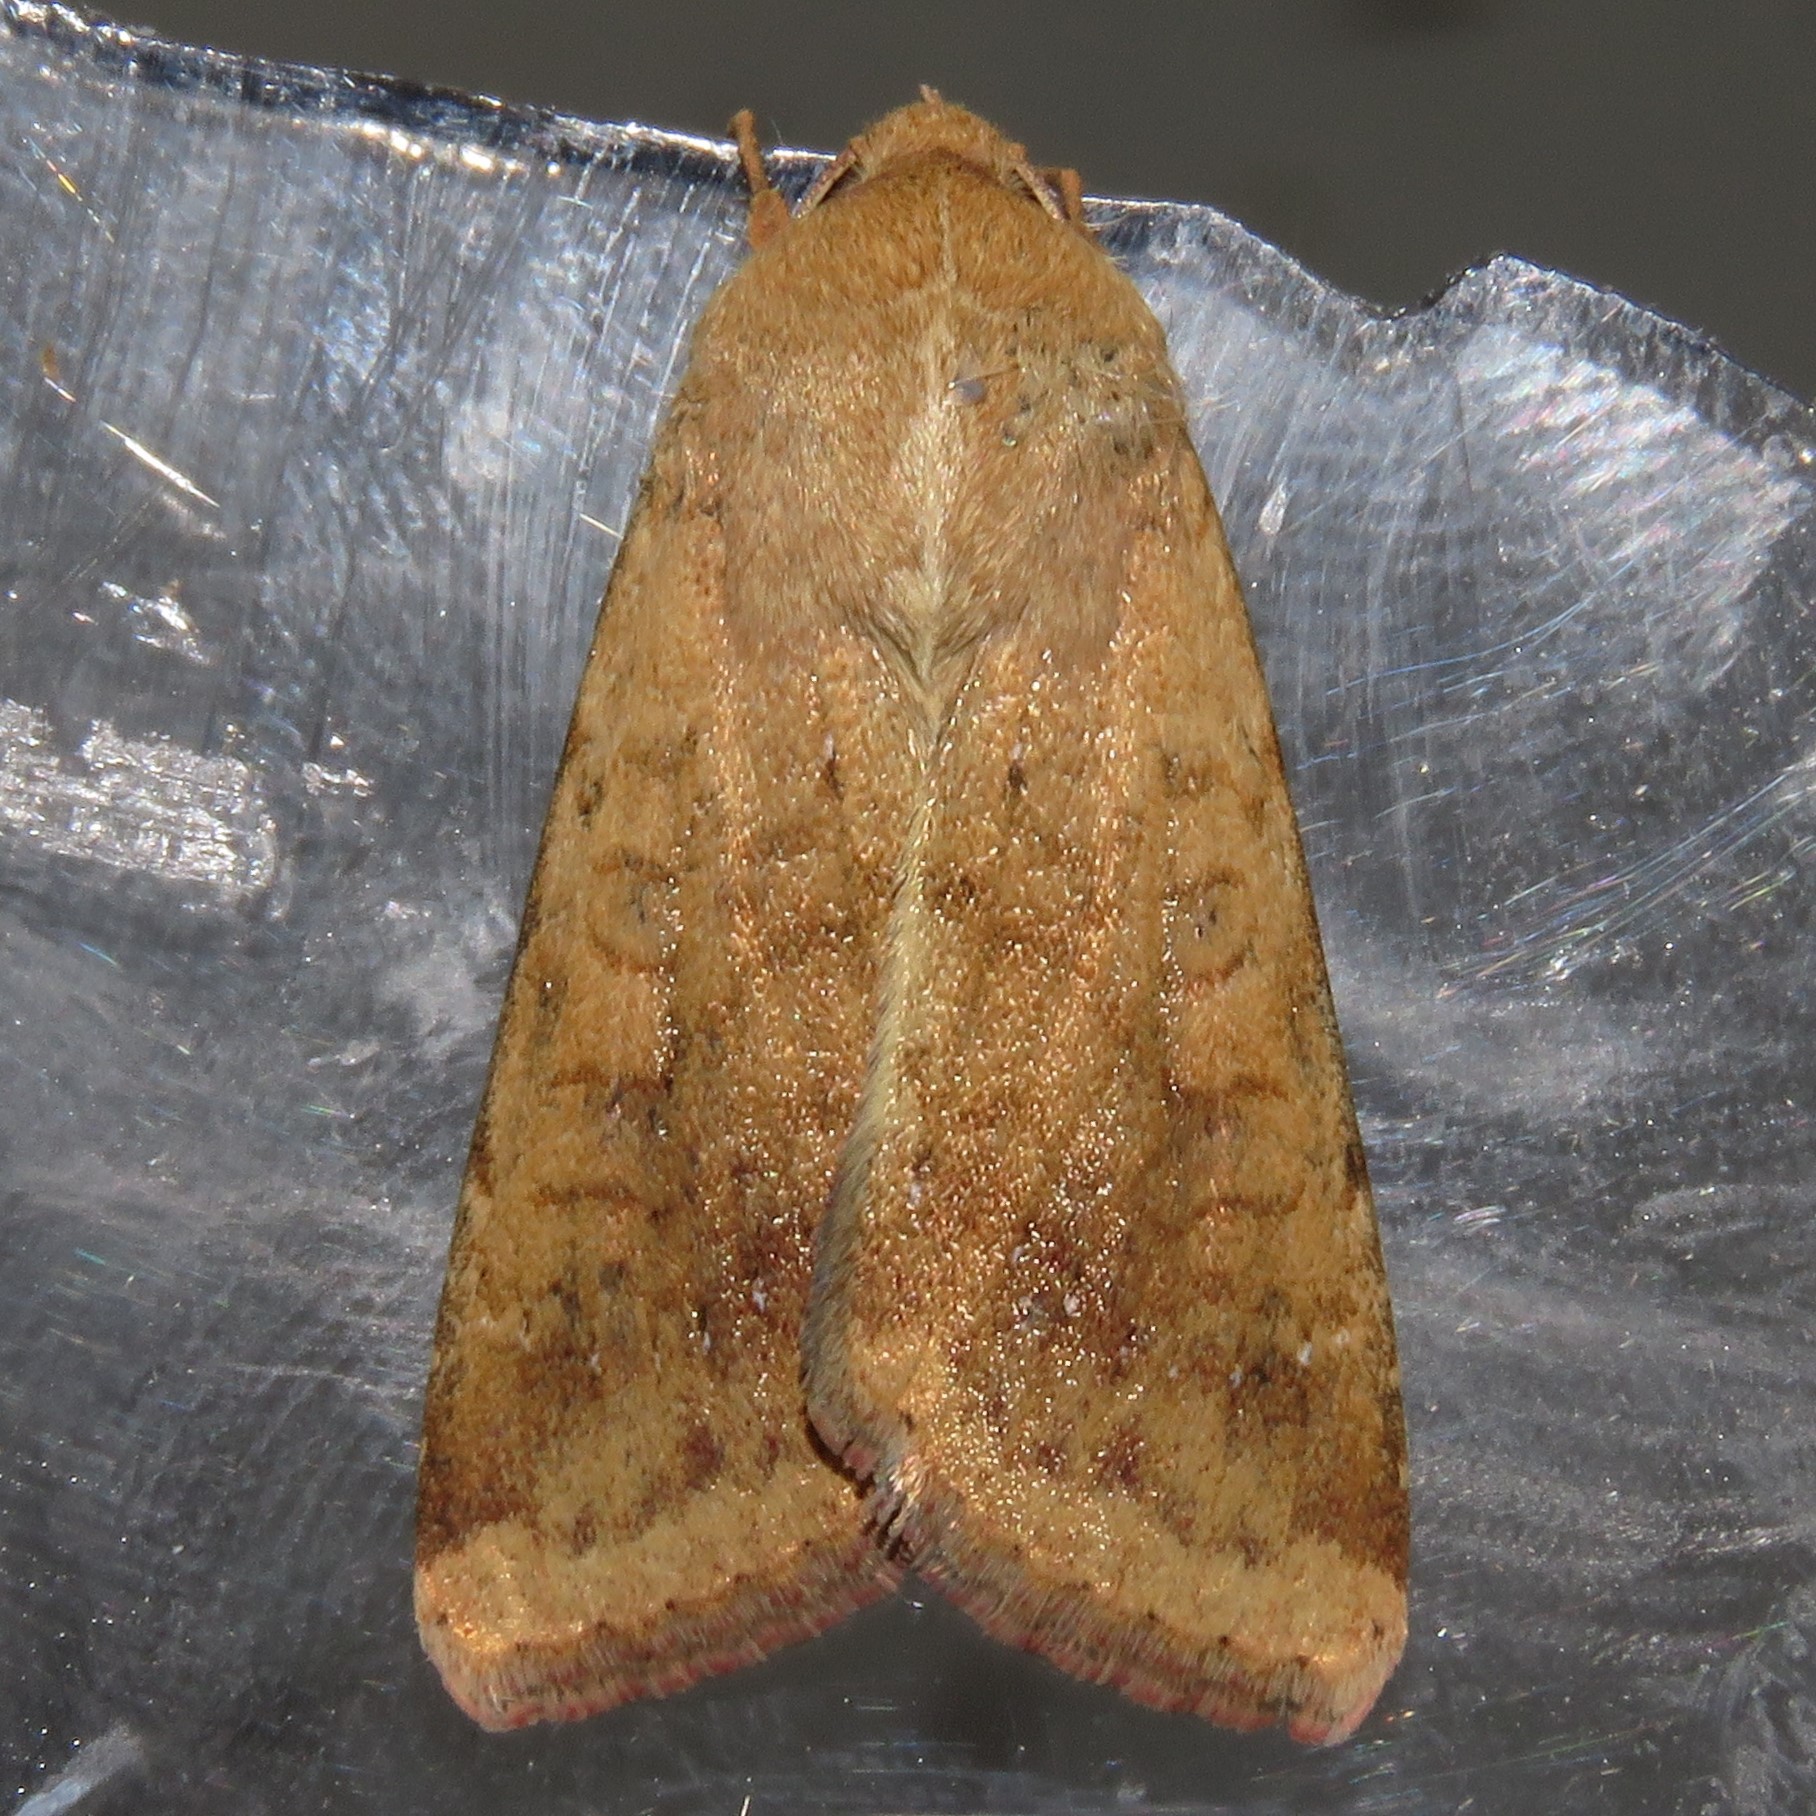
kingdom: Animalia
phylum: Arthropoda
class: Insecta
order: Lepidoptera
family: Noctuidae
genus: Helicoverpa
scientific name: Helicoverpa zea
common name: Bollworm
